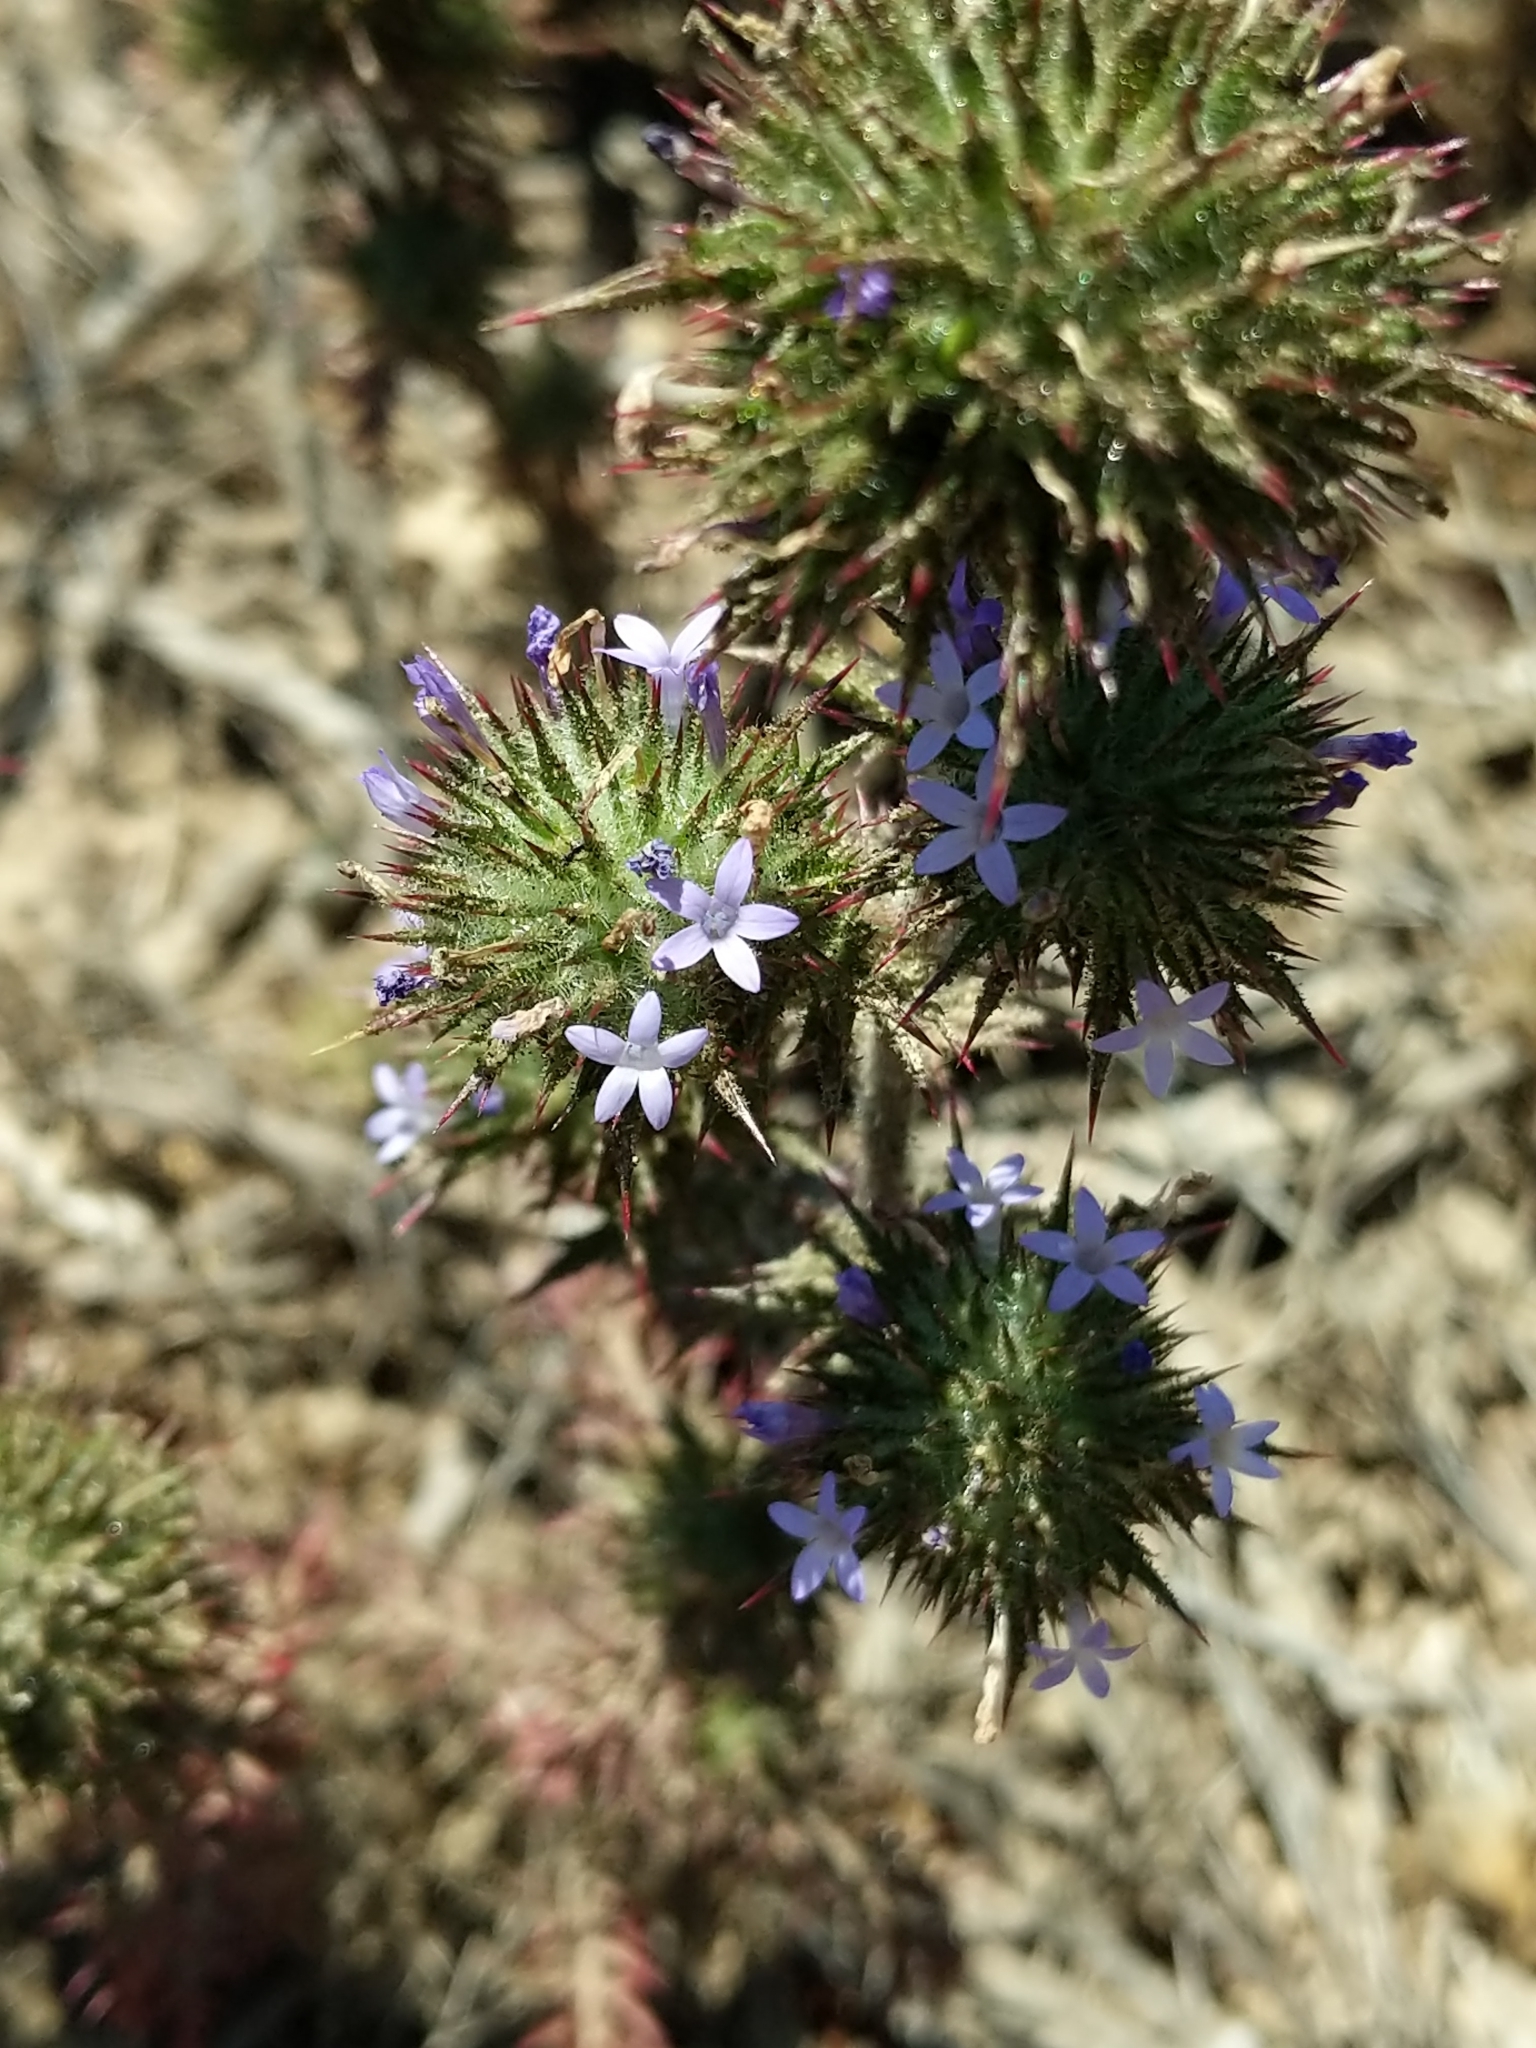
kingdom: Plantae
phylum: Tracheophyta
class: Magnoliopsida
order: Ericales
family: Polemoniaceae
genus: Navarretia
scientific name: Navarretia squarrosa
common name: Skunkweed
